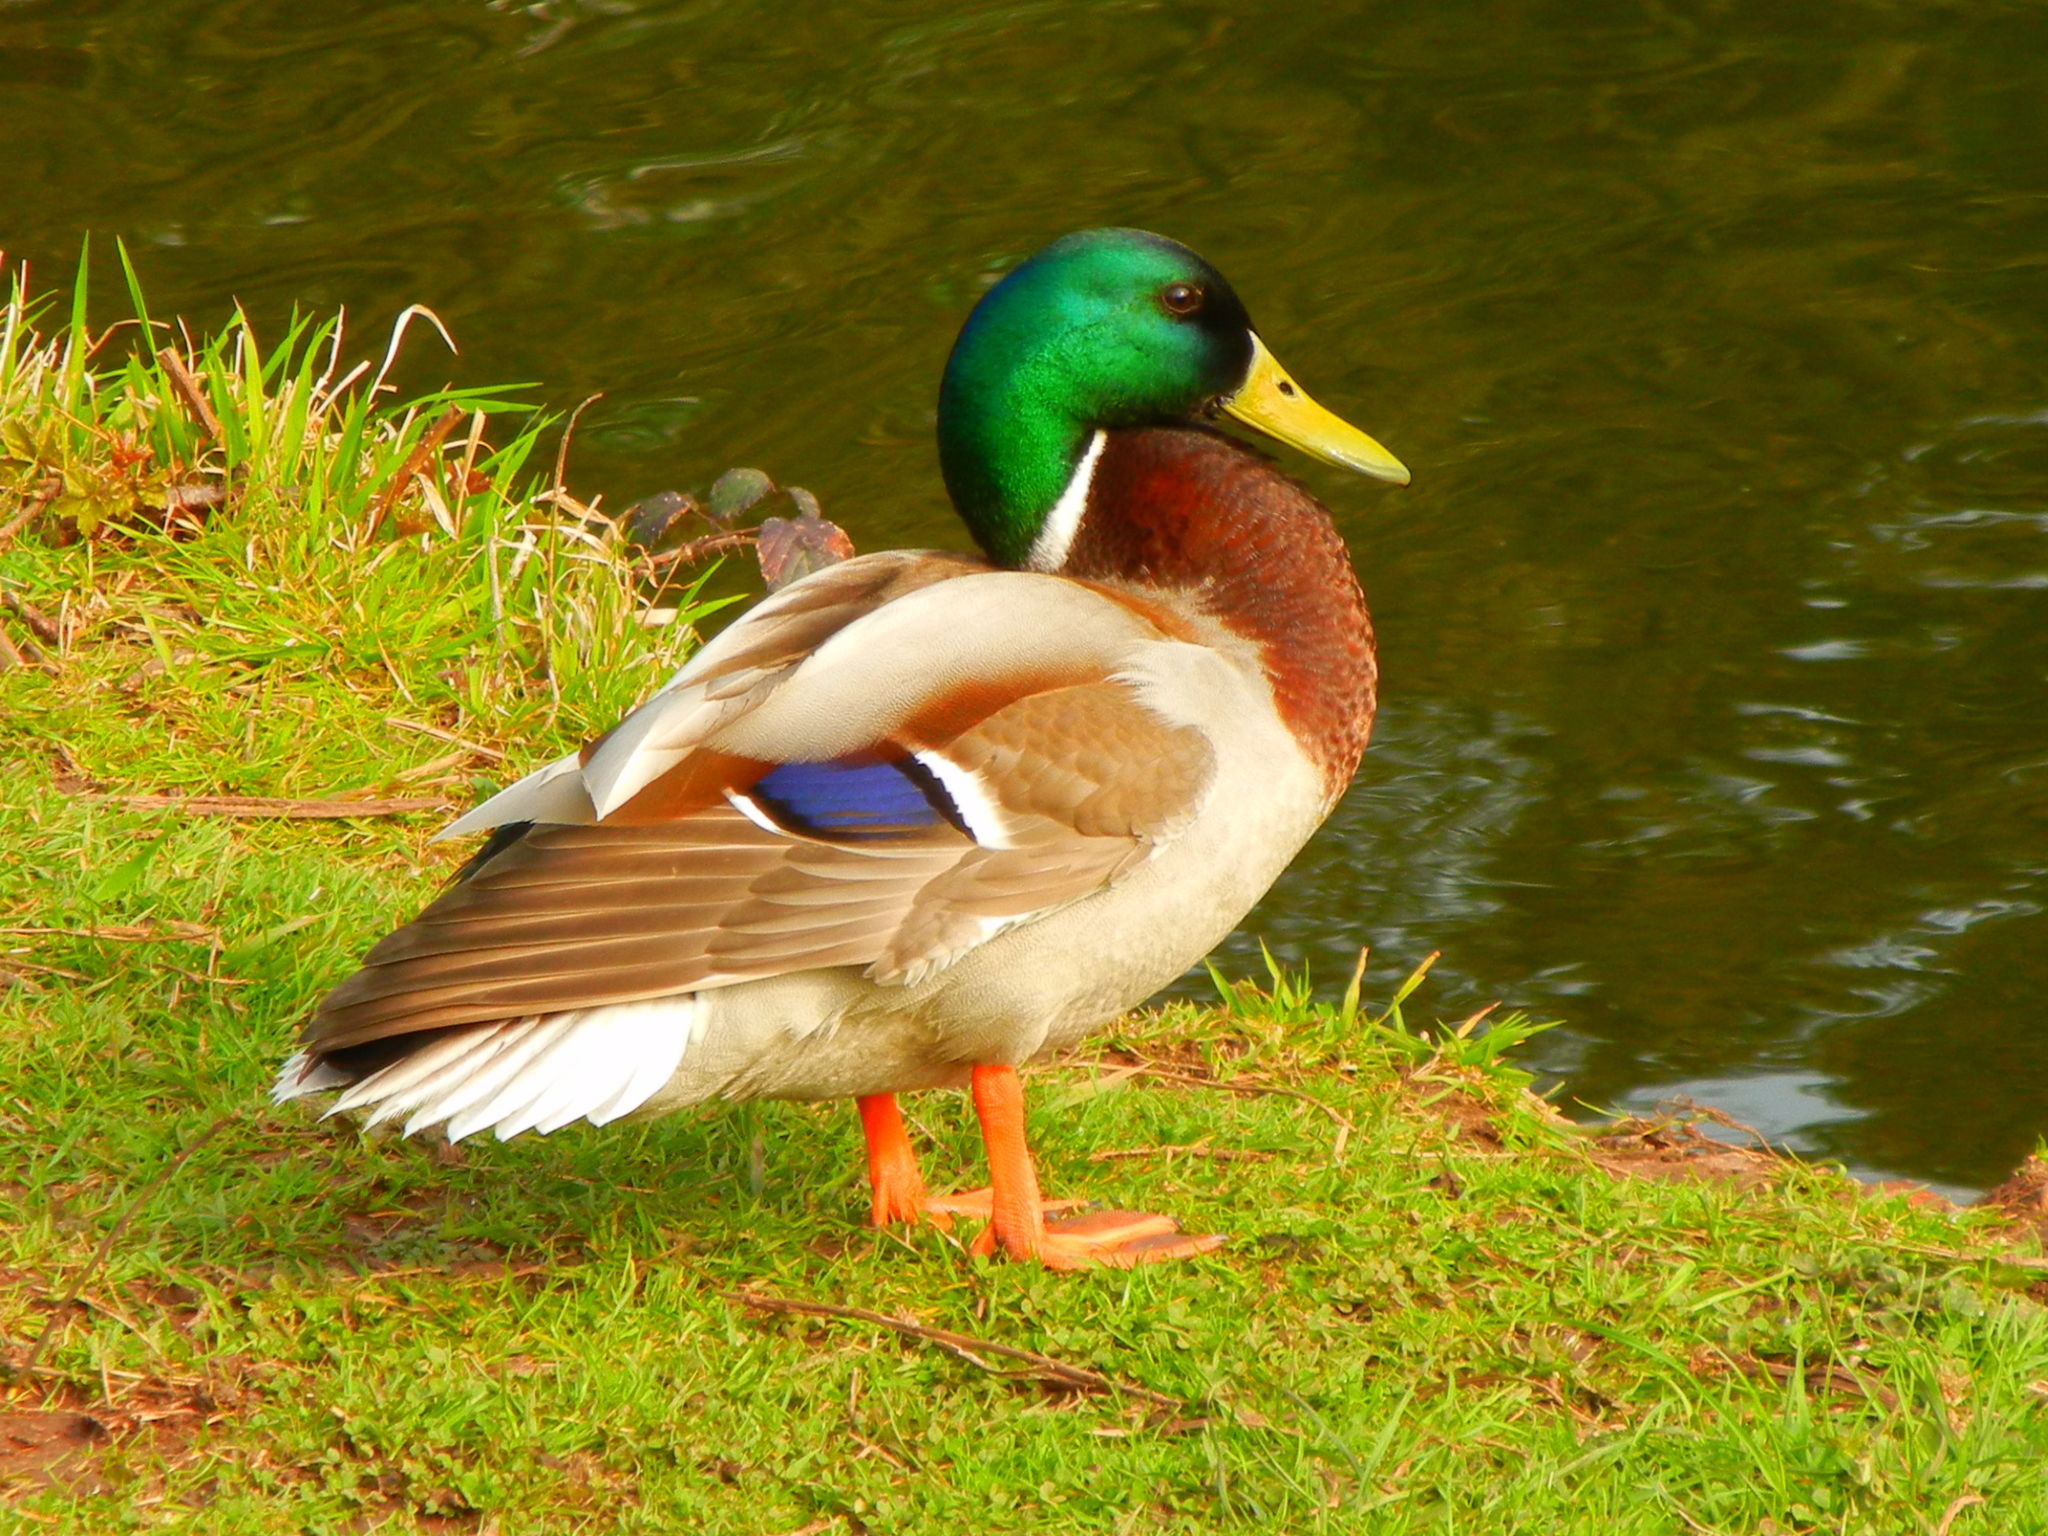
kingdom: Animalia
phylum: Chordata
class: Aves
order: Anseriformes
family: Anatidae
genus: Anas
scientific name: Anas platyrhynchos
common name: Mallard
